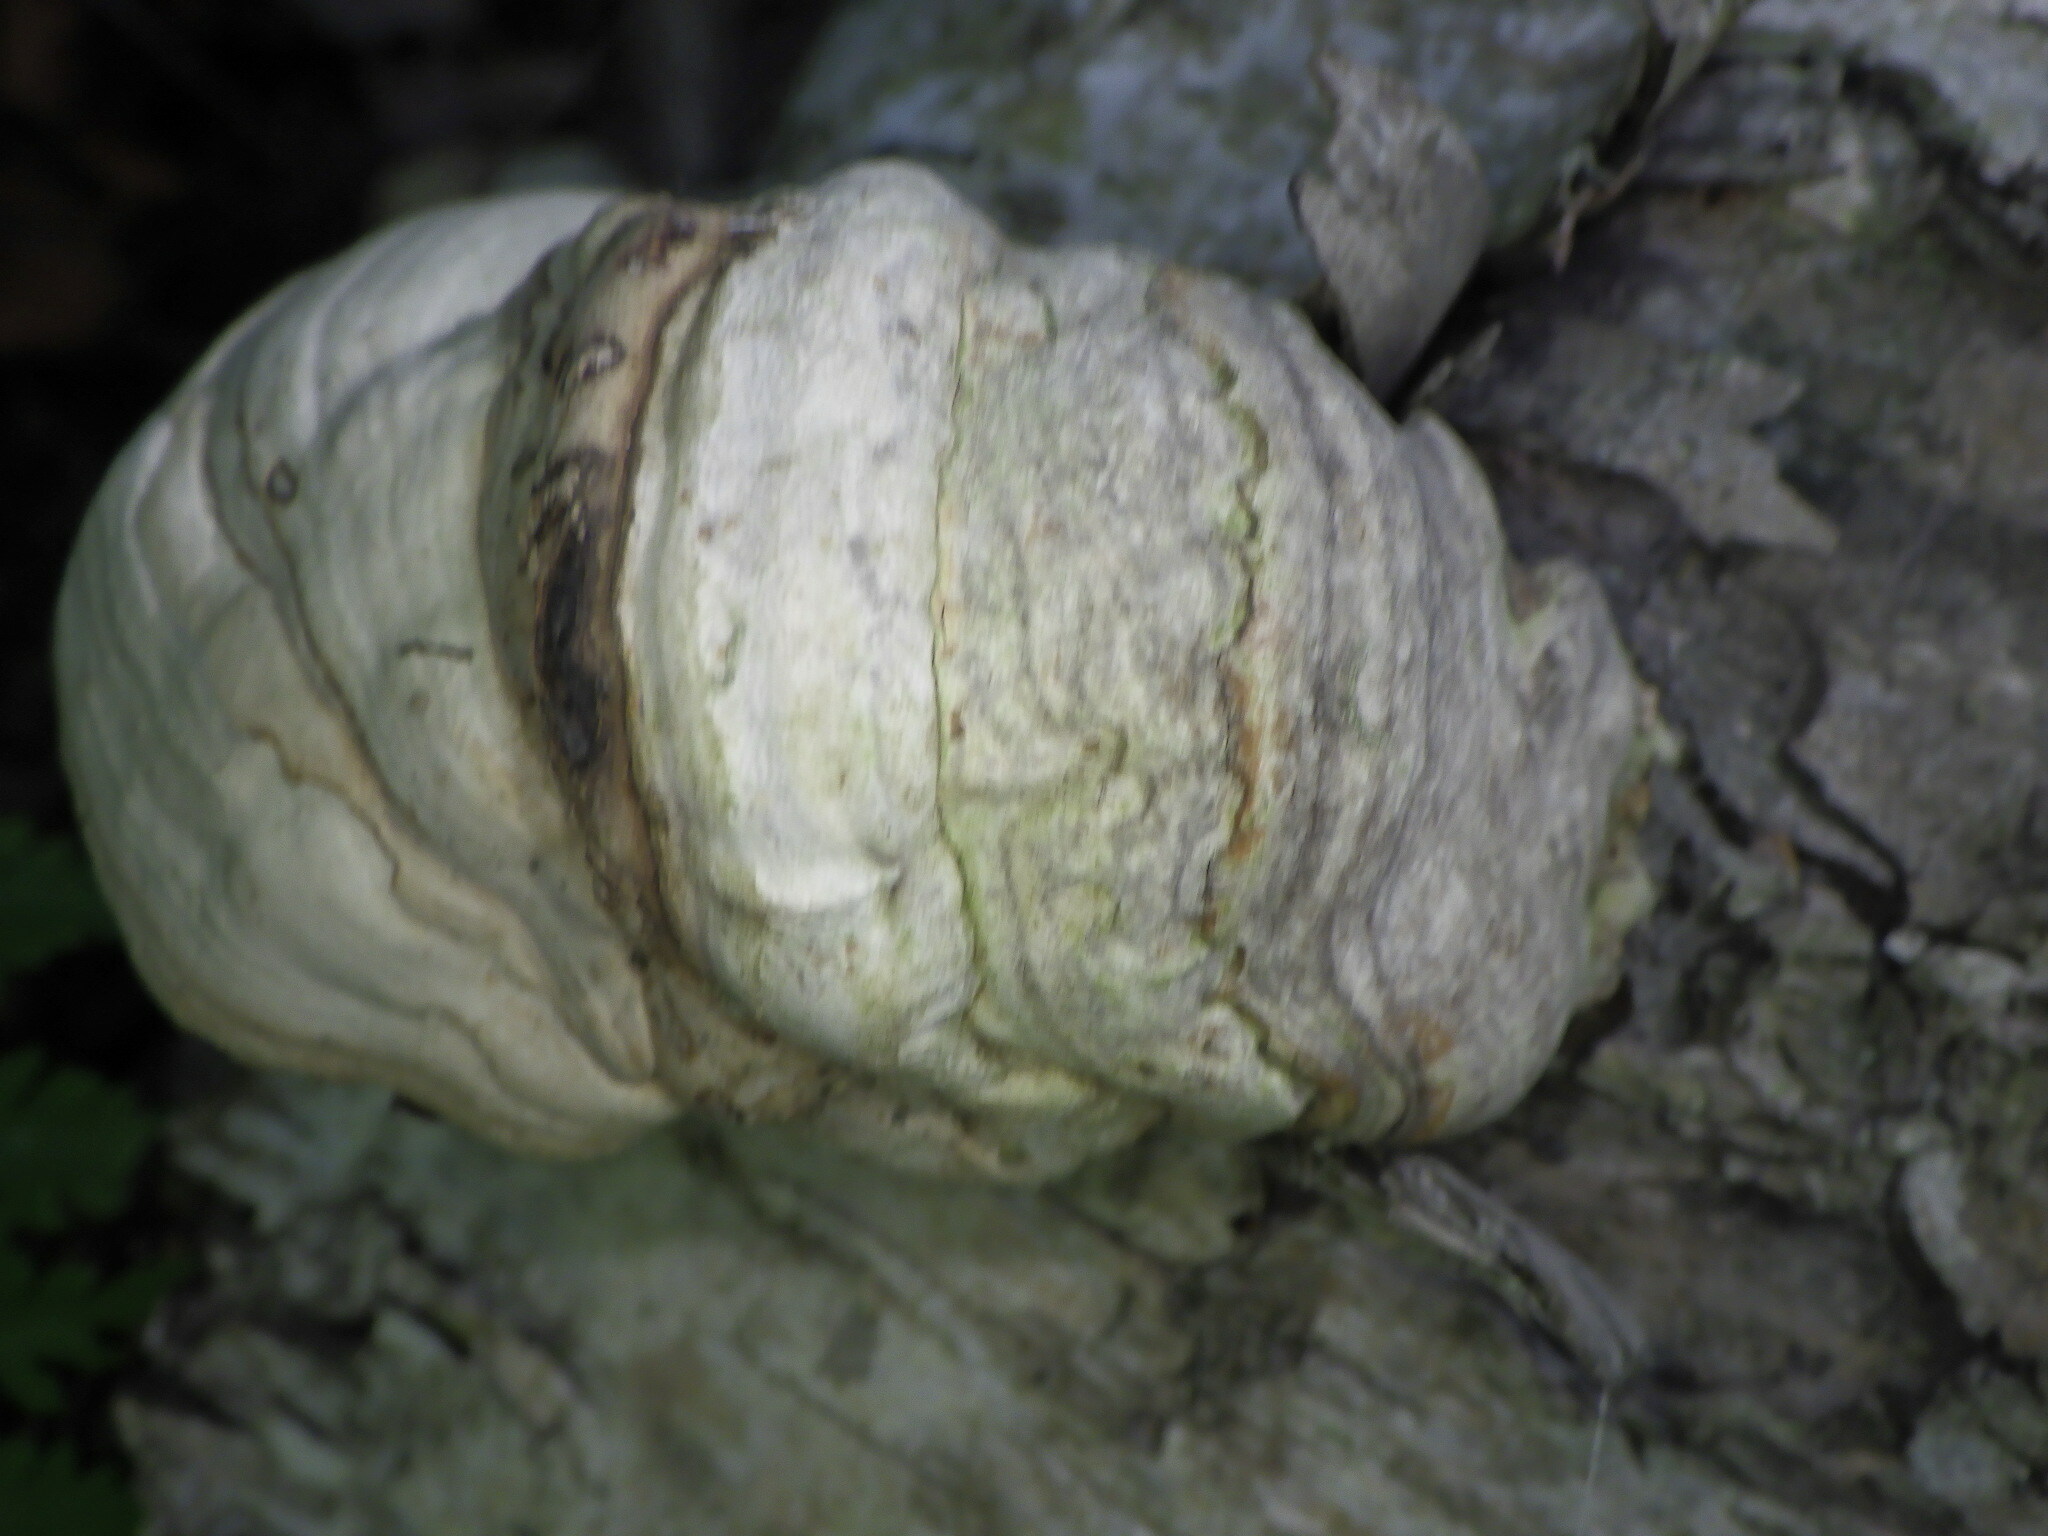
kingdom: Fungi
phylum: Basidiomycota
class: Agaricomycetes
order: Polyporales
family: Polyporaceae
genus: Fomes
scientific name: Fomes fomentarius
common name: Hoof fungus
